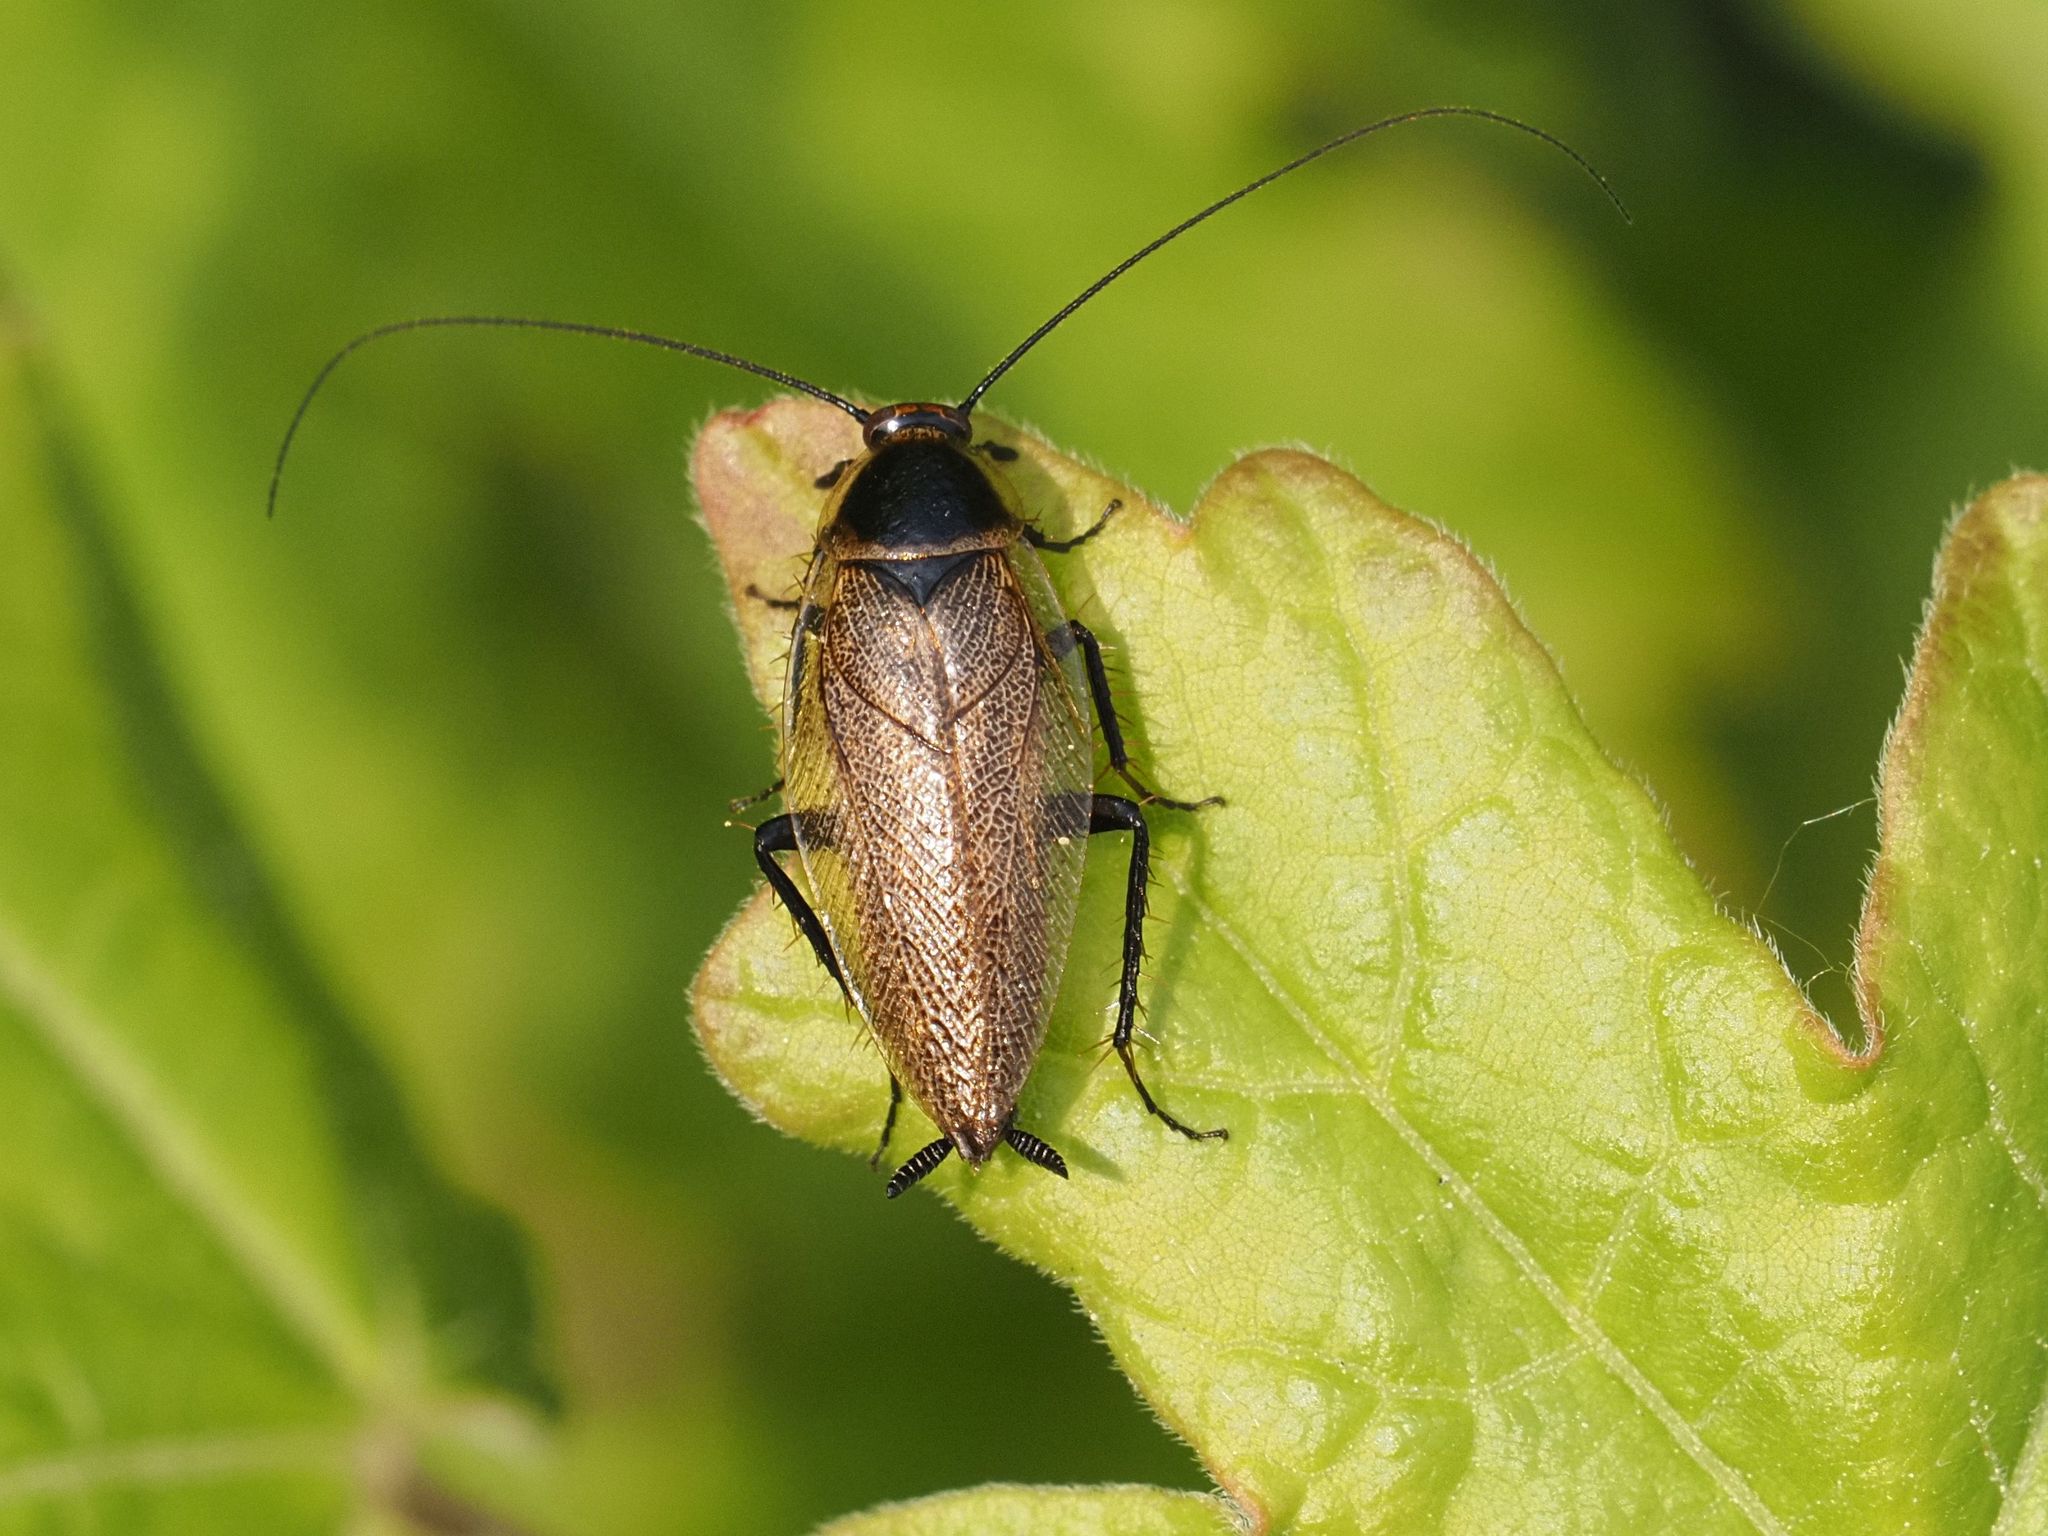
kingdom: Animalia
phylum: Arthropoda
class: Insecta
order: Blattodea
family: Ectobiidae
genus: Ectobius
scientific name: Ectobius erythronotus
